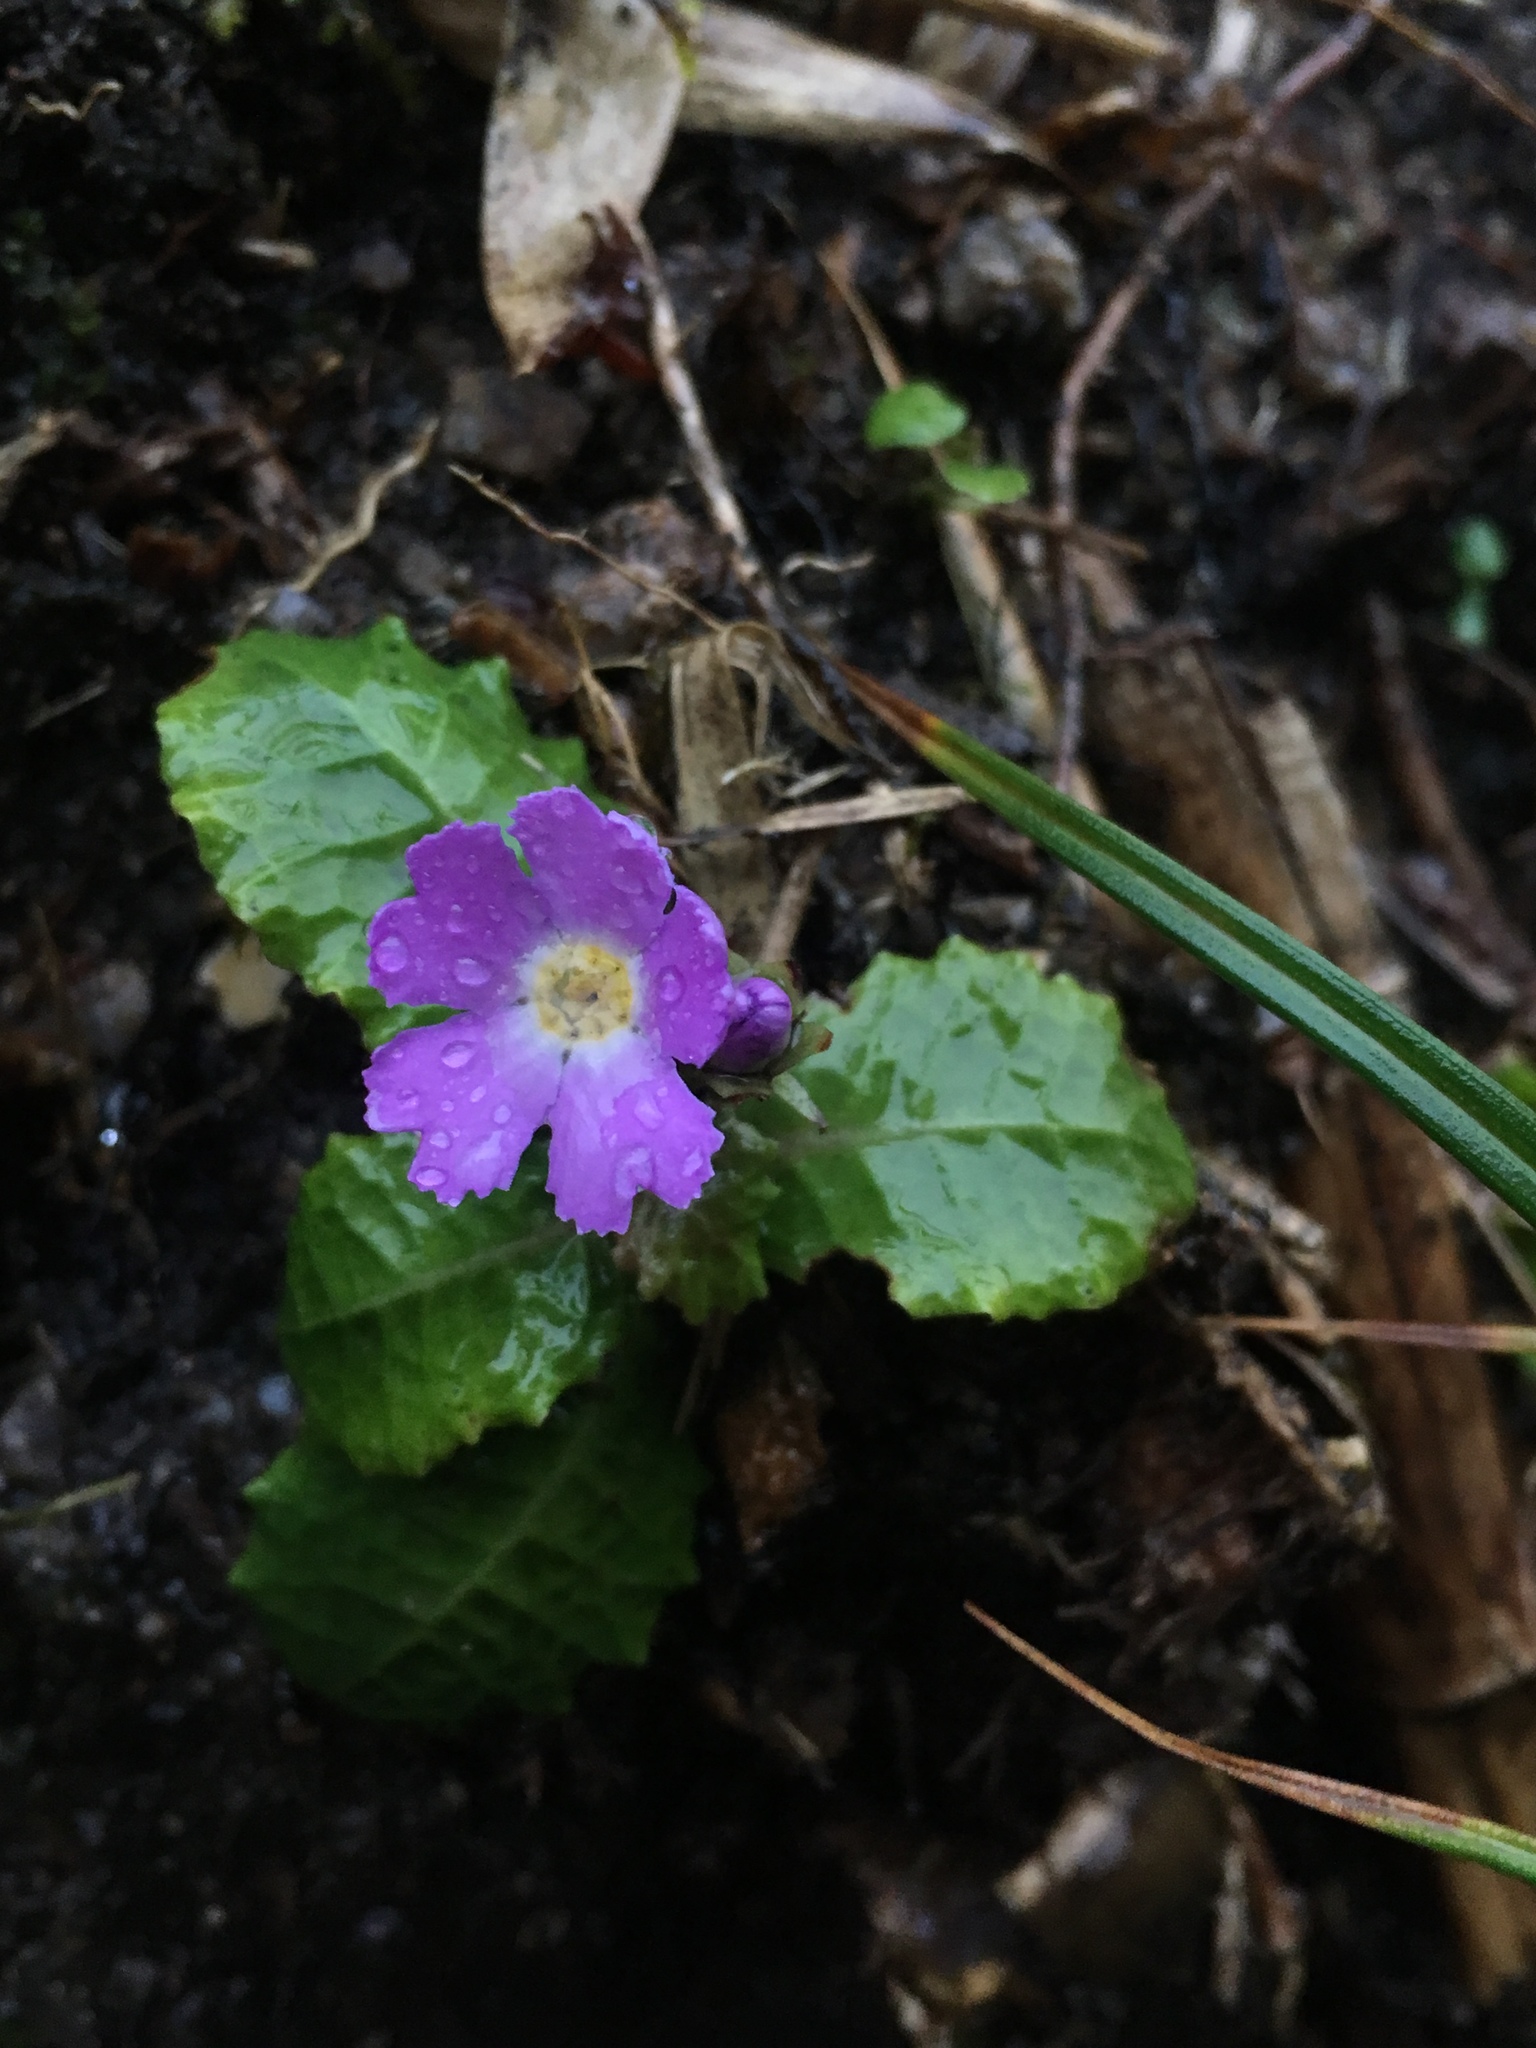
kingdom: Plantae
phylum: Tracheophyta
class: Magnoliopsida
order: Ericales
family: Primulaceae
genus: Primula
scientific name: Primula nghialoensis
